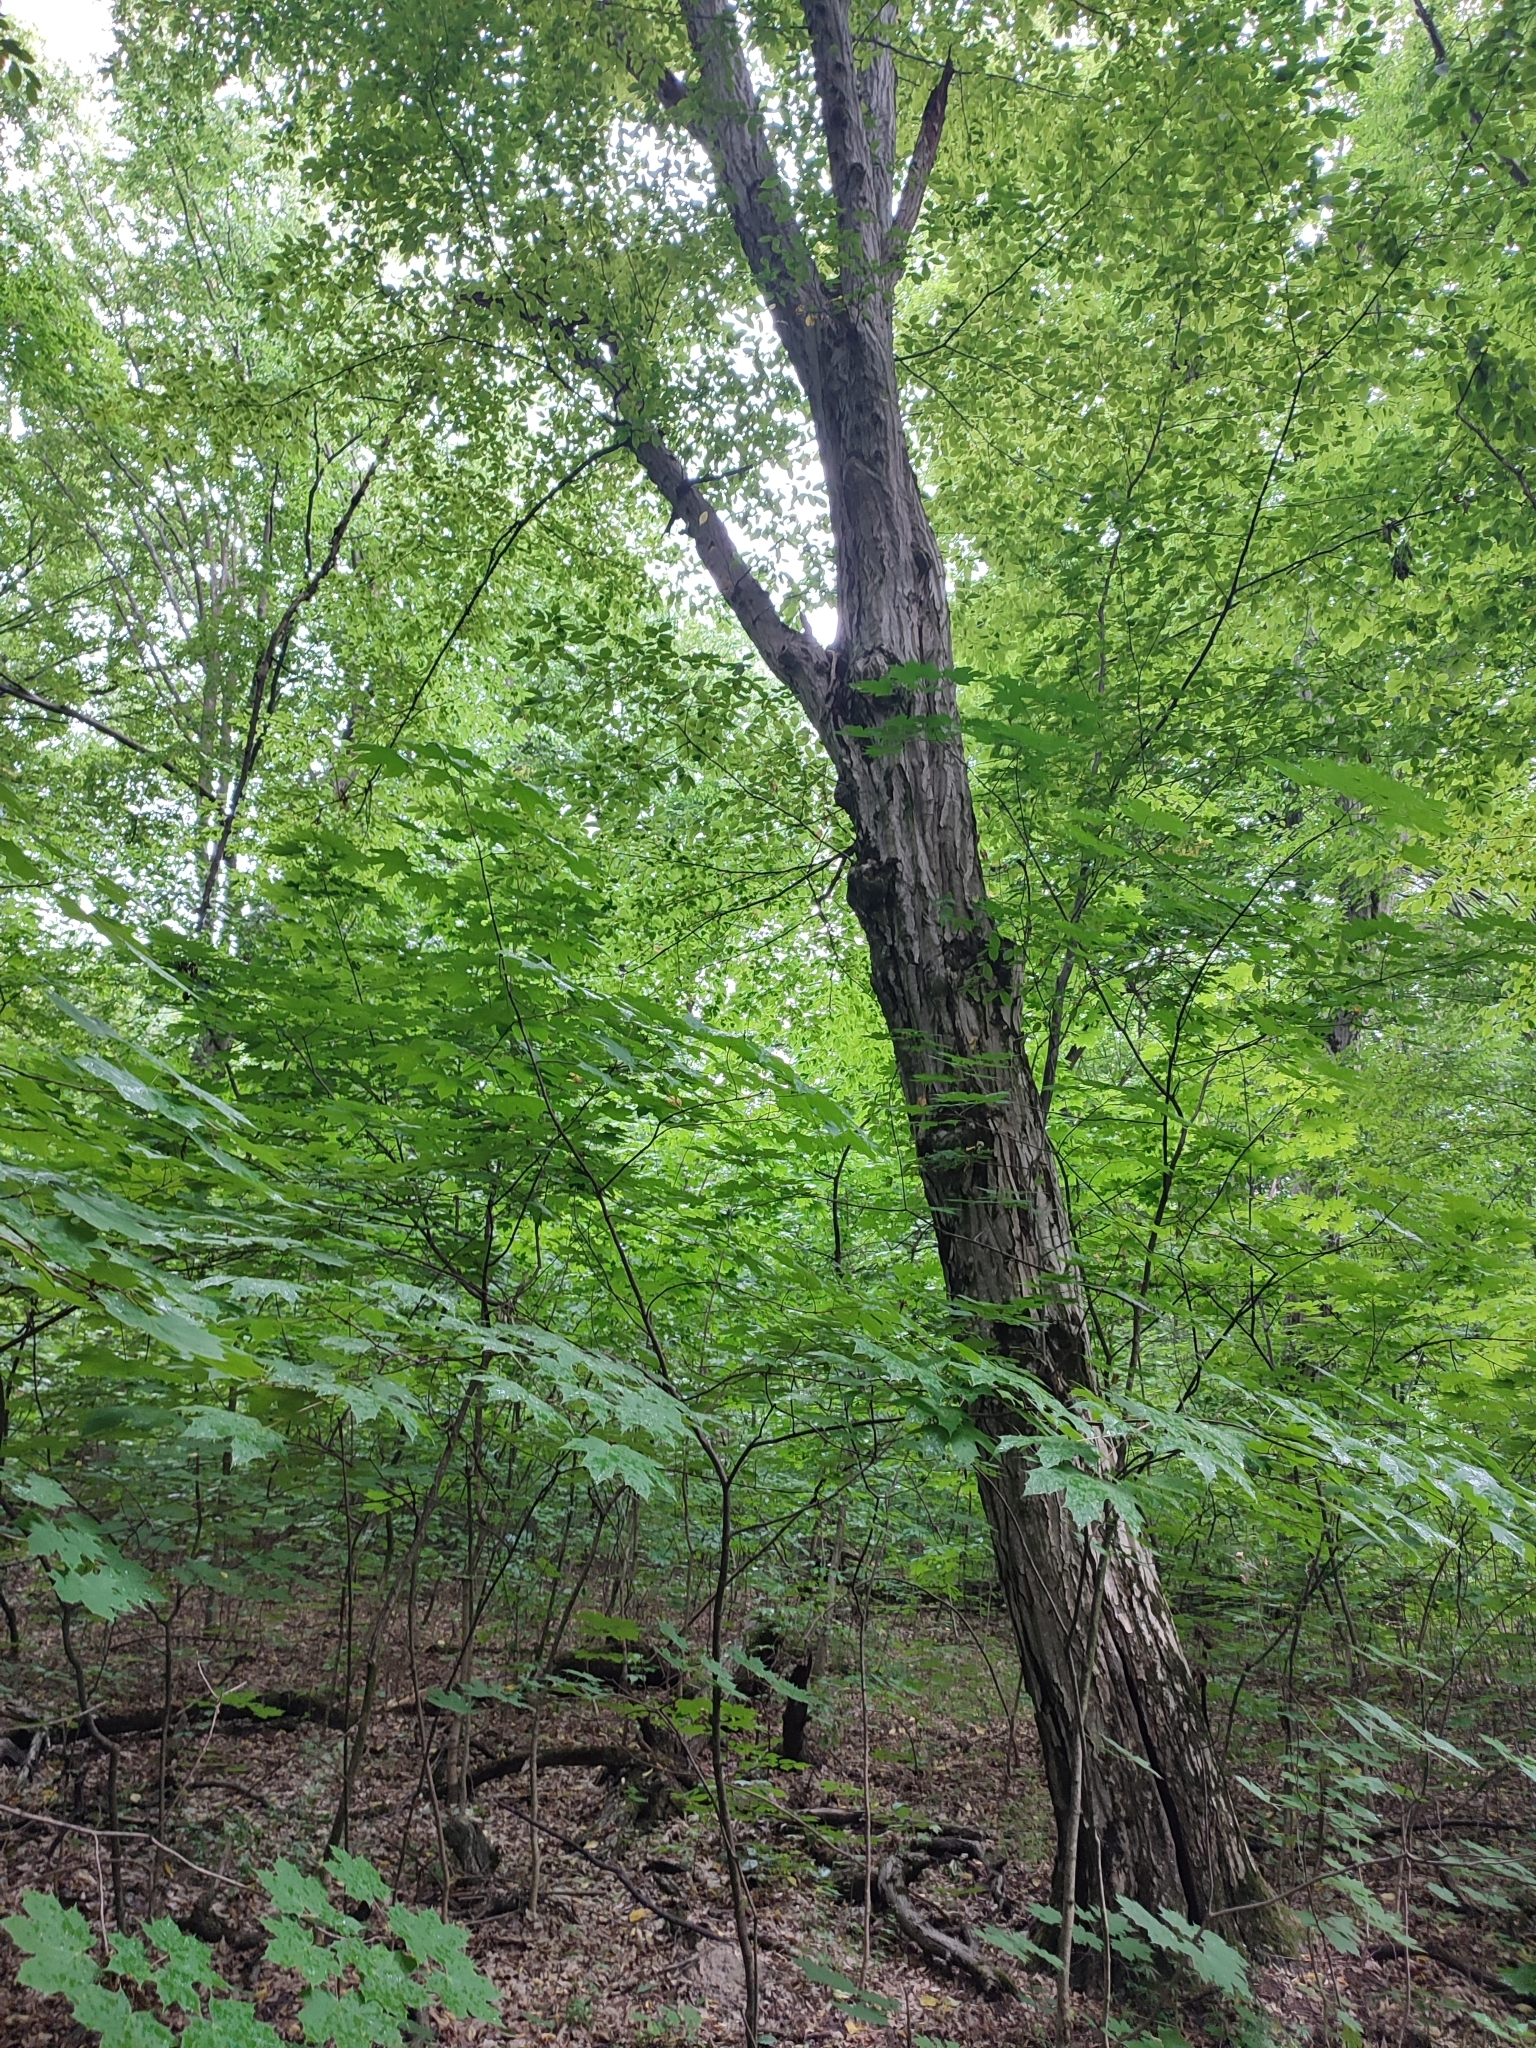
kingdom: Plantae
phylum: Tracheophyta
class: Magnoliopsida
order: Fagales
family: Betulaceae
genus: Carpinus
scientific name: Carpinus betulus
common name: Hornbeam
